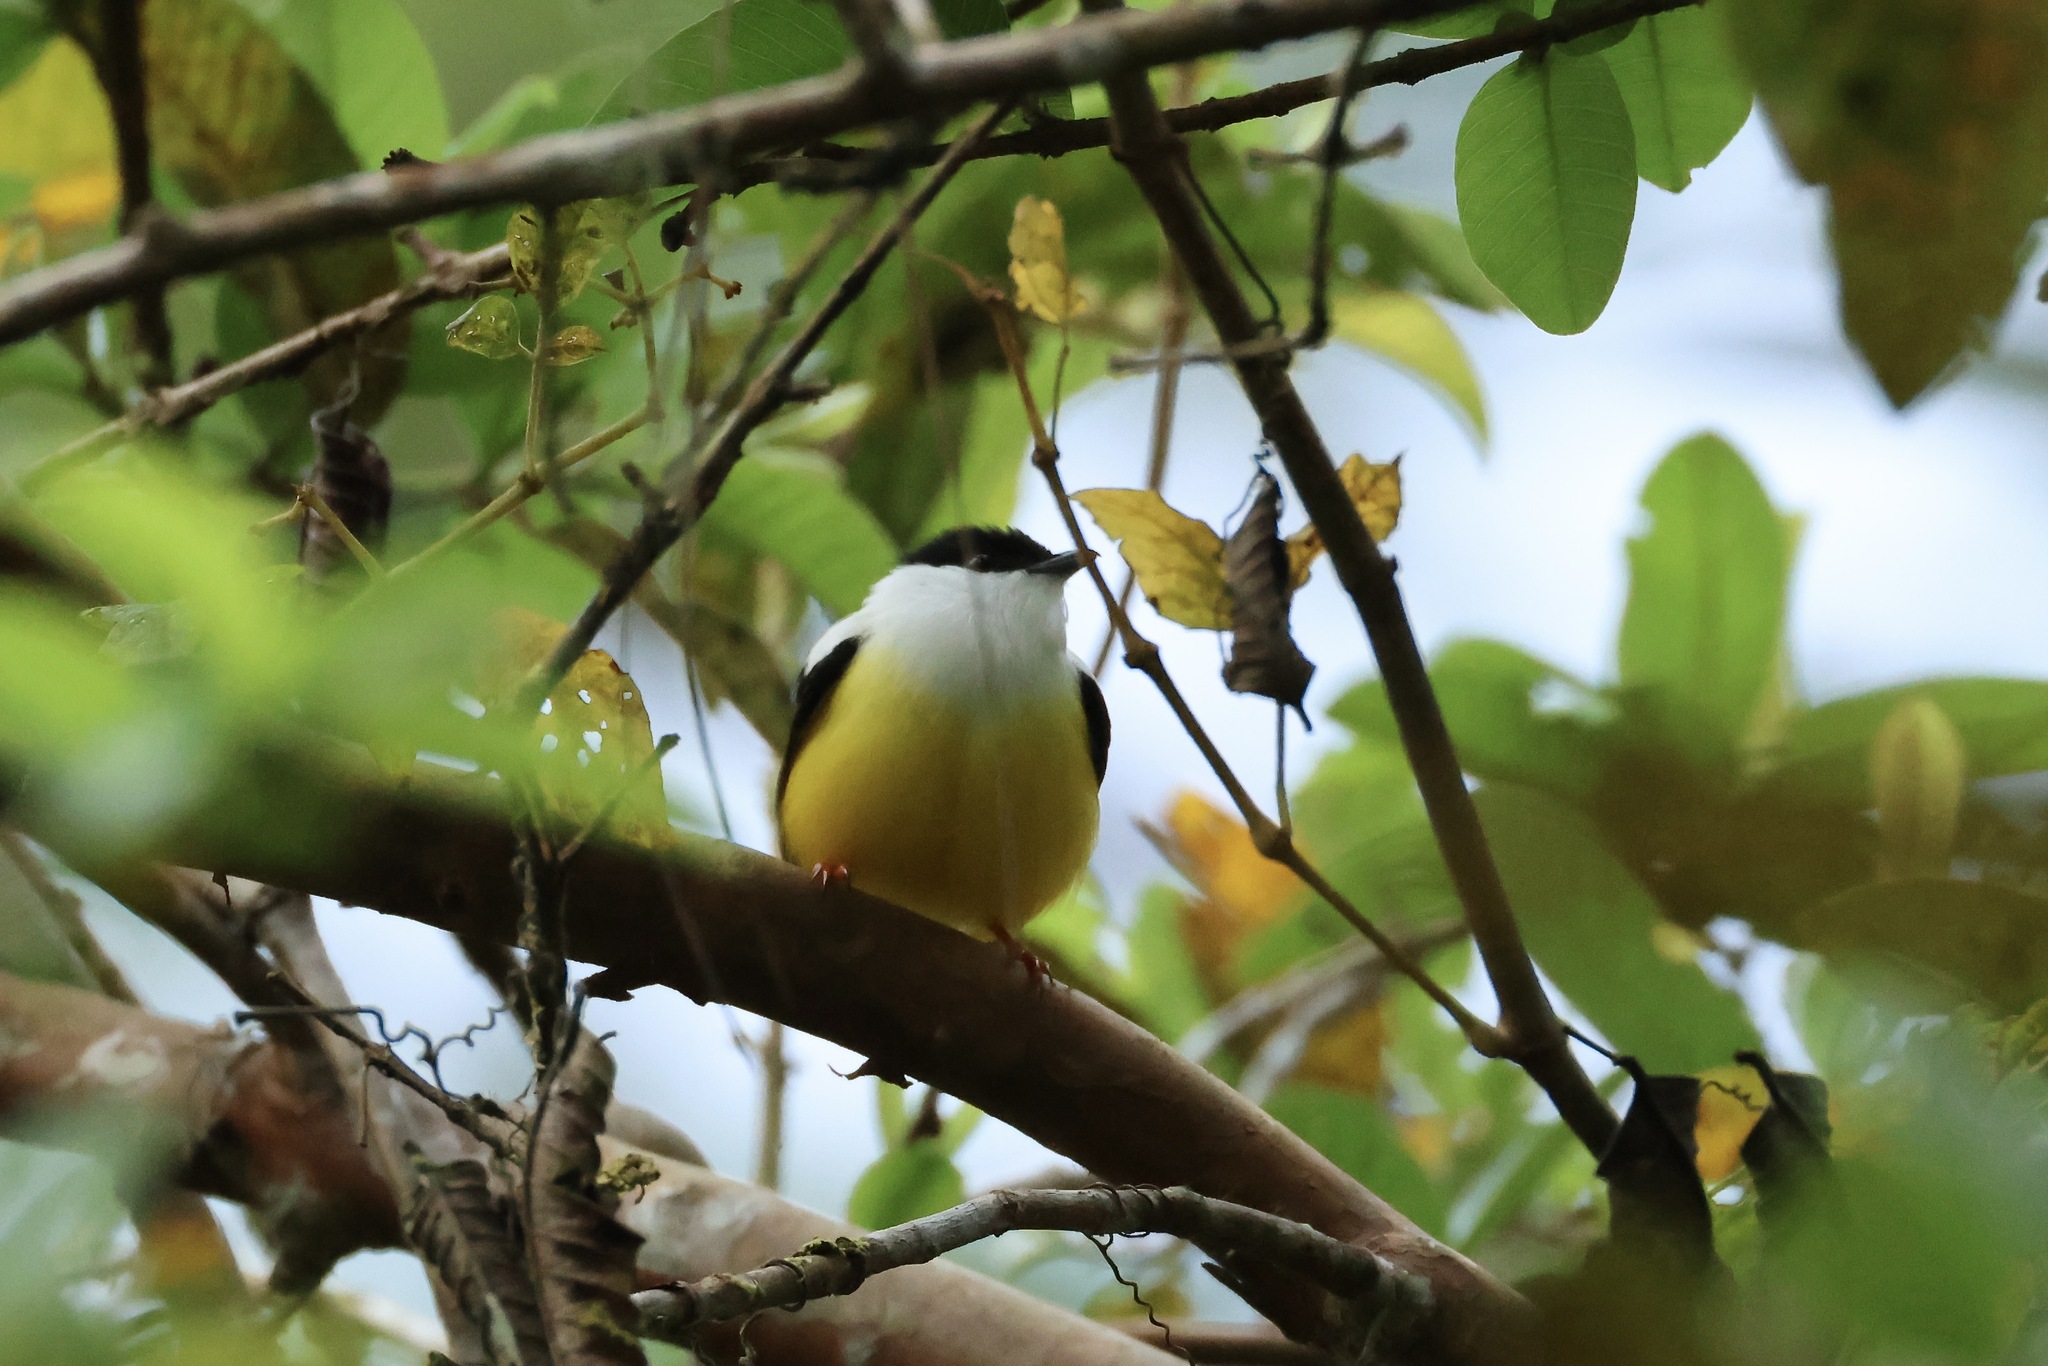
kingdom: Animalia
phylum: Chordata
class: Aves
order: Passeriformes
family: Pipridae
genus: Manacus
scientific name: Manacus candei
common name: White-collared manakin
